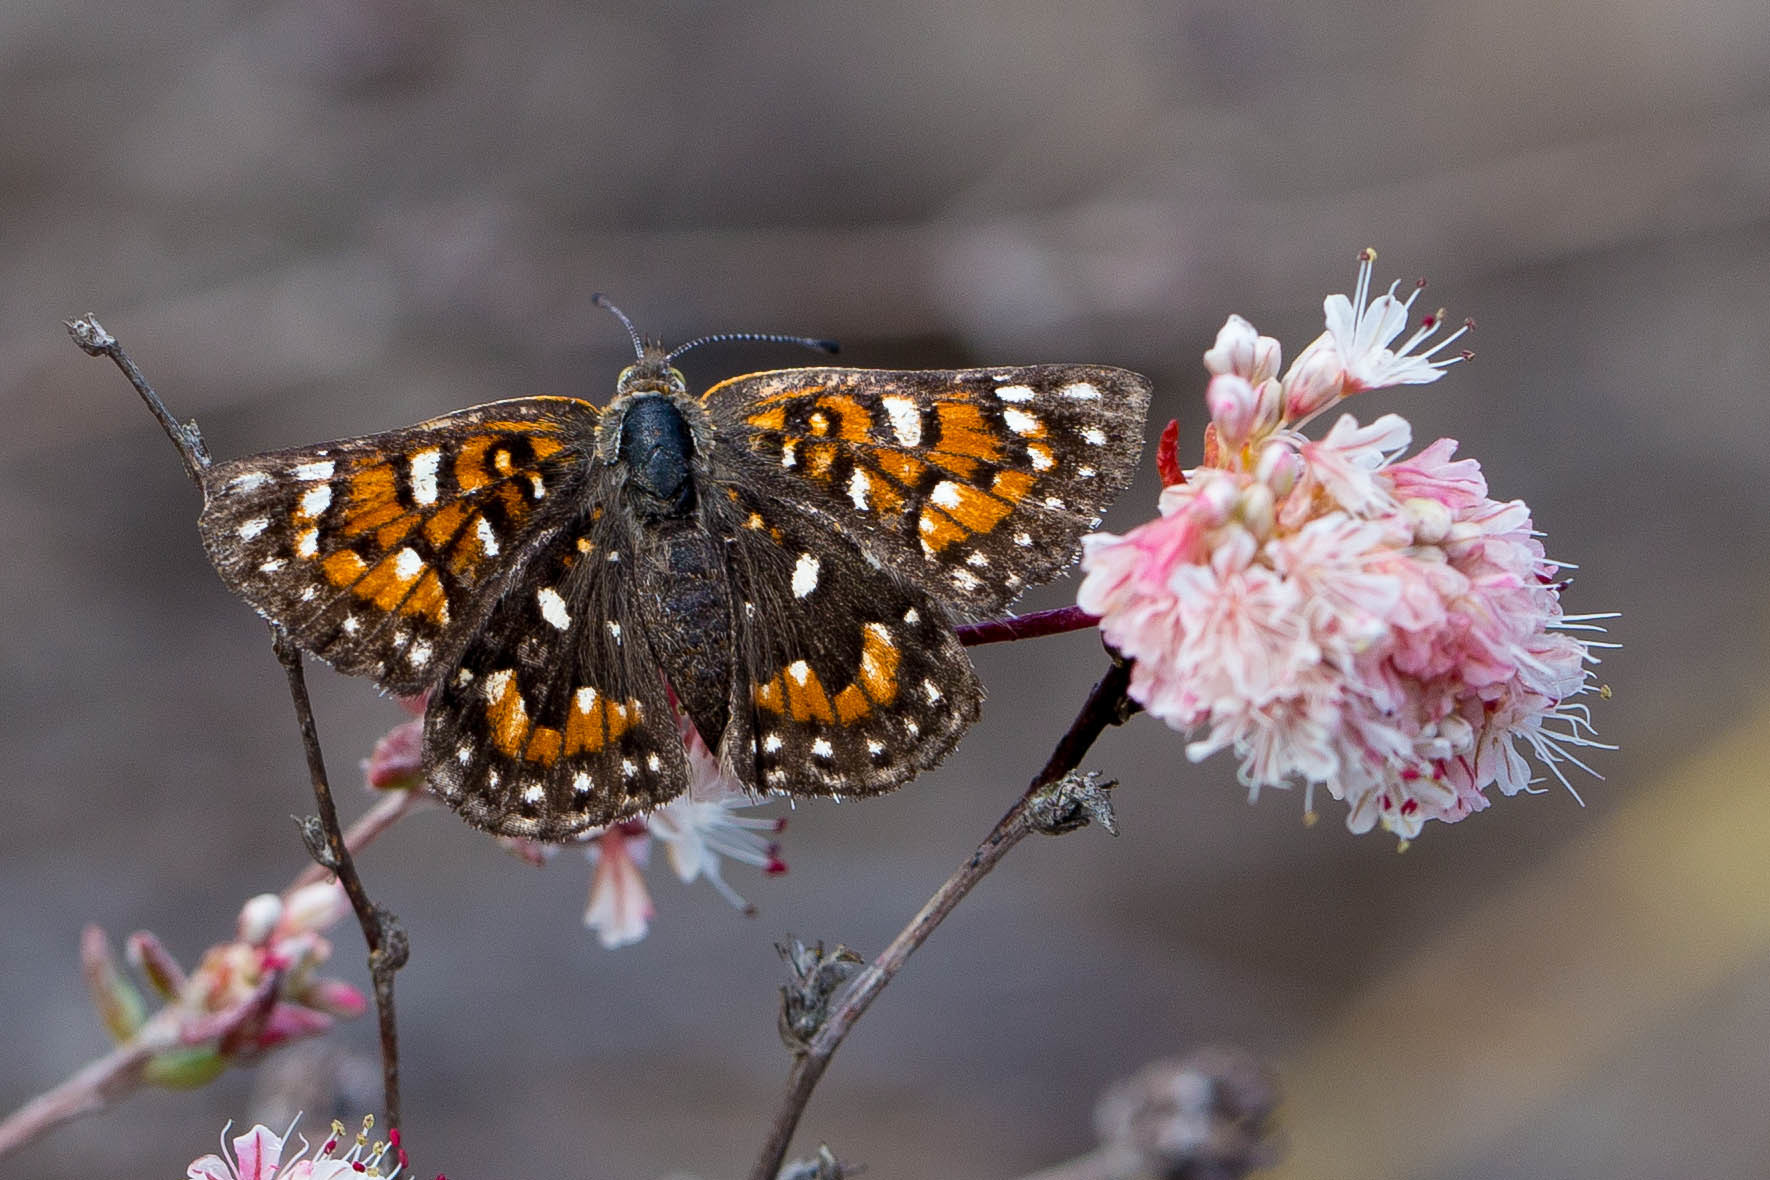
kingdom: Animalia
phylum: Arthropoda
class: Insecta
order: Lepidoptera
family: Riodinidae
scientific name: Riodinidae
